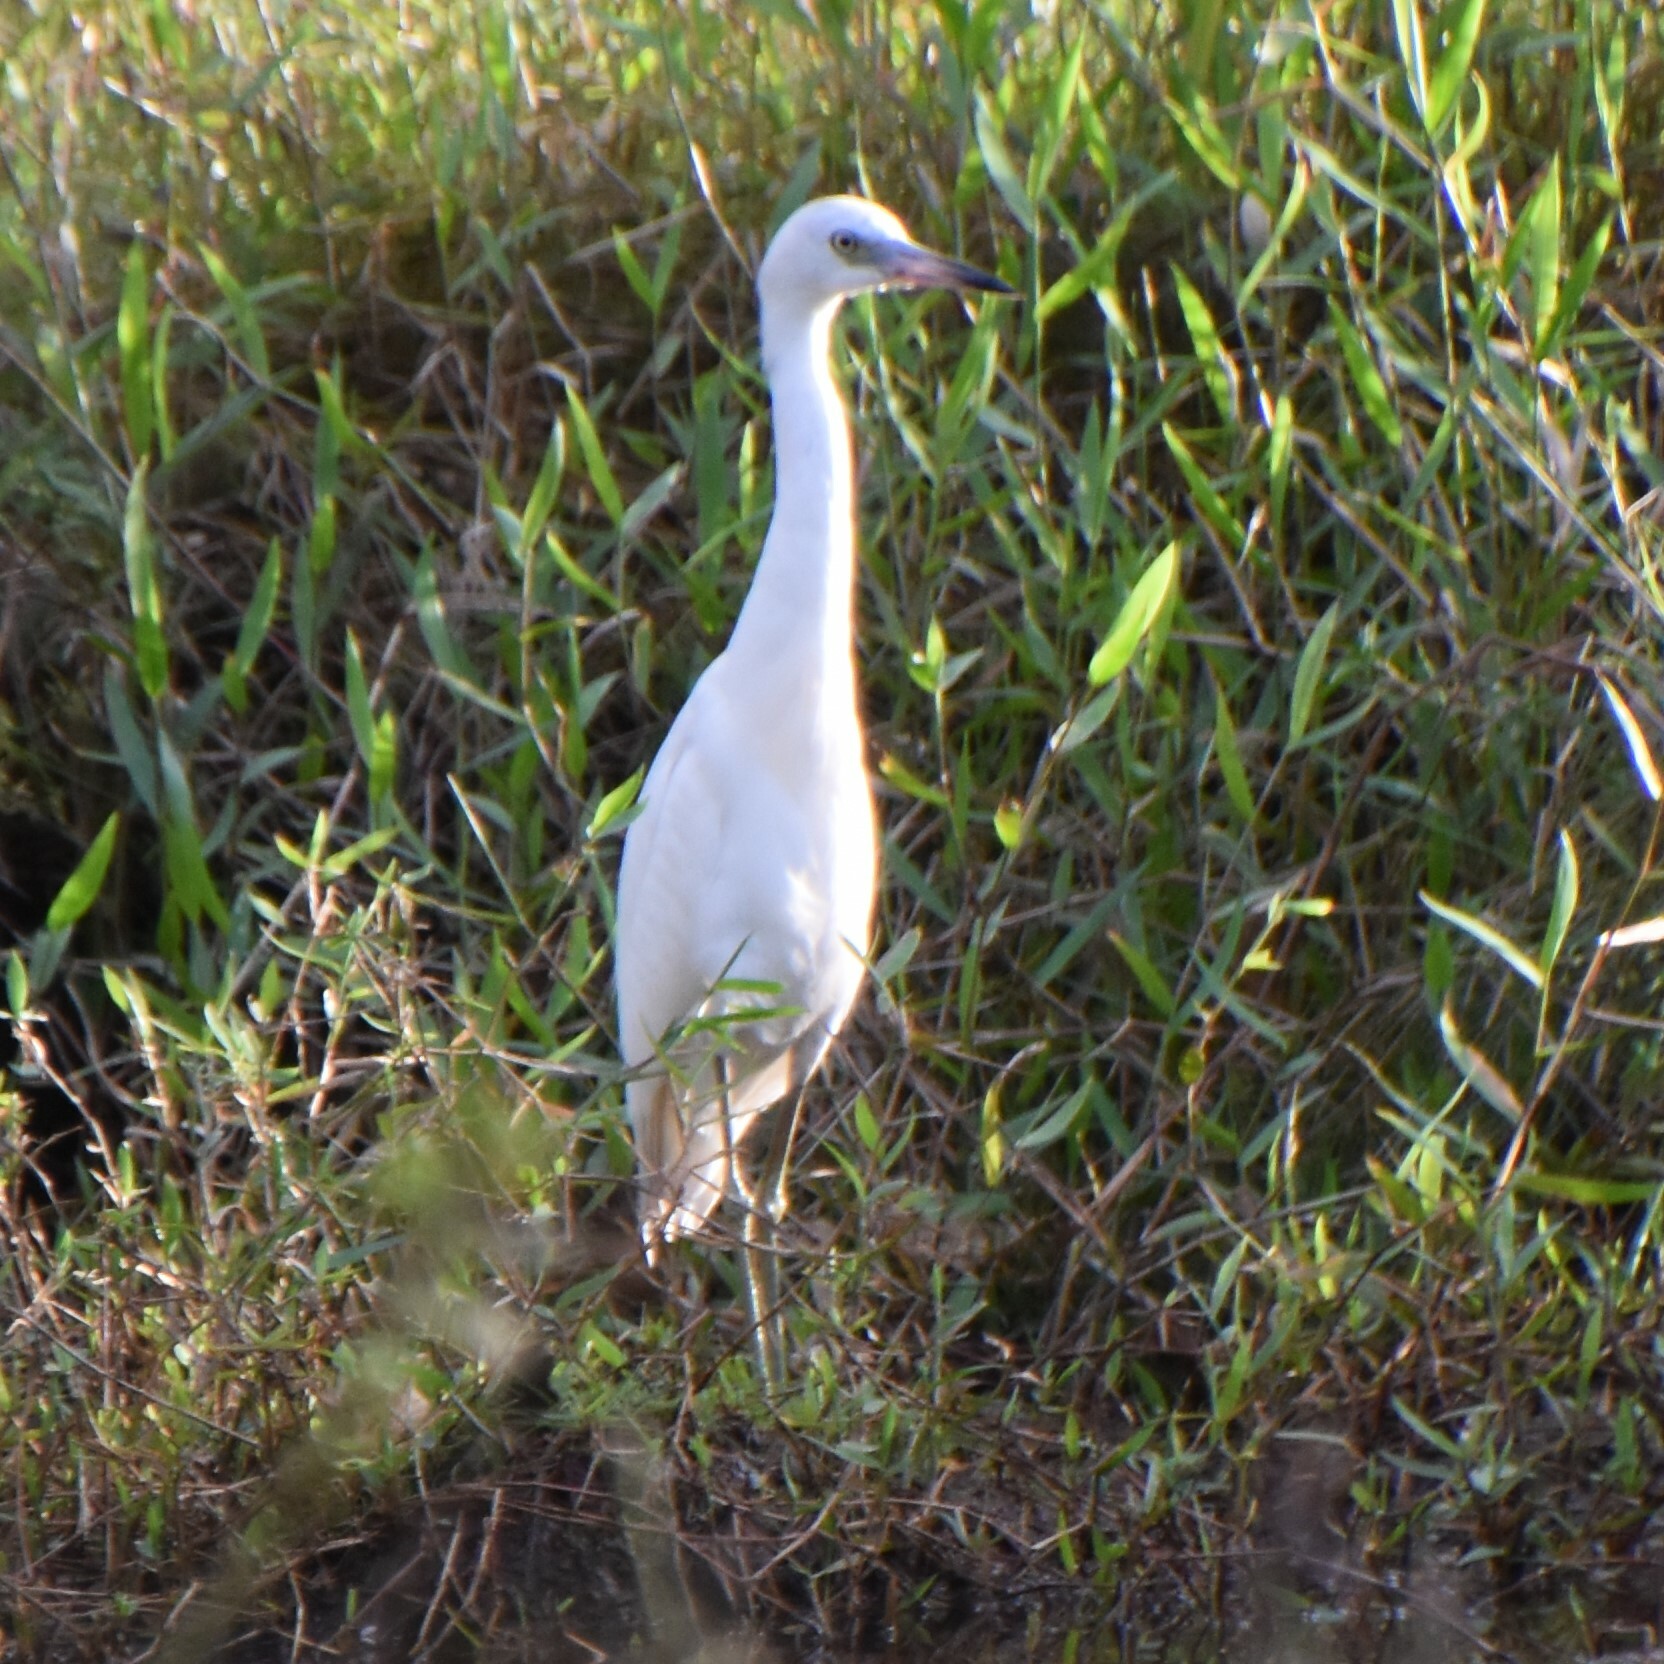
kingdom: Animalia
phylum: Chordata
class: Aves
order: Pelecaniformes
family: Ardeidae
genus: Egretta
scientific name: Egretta caerulea
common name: Little blue heron
